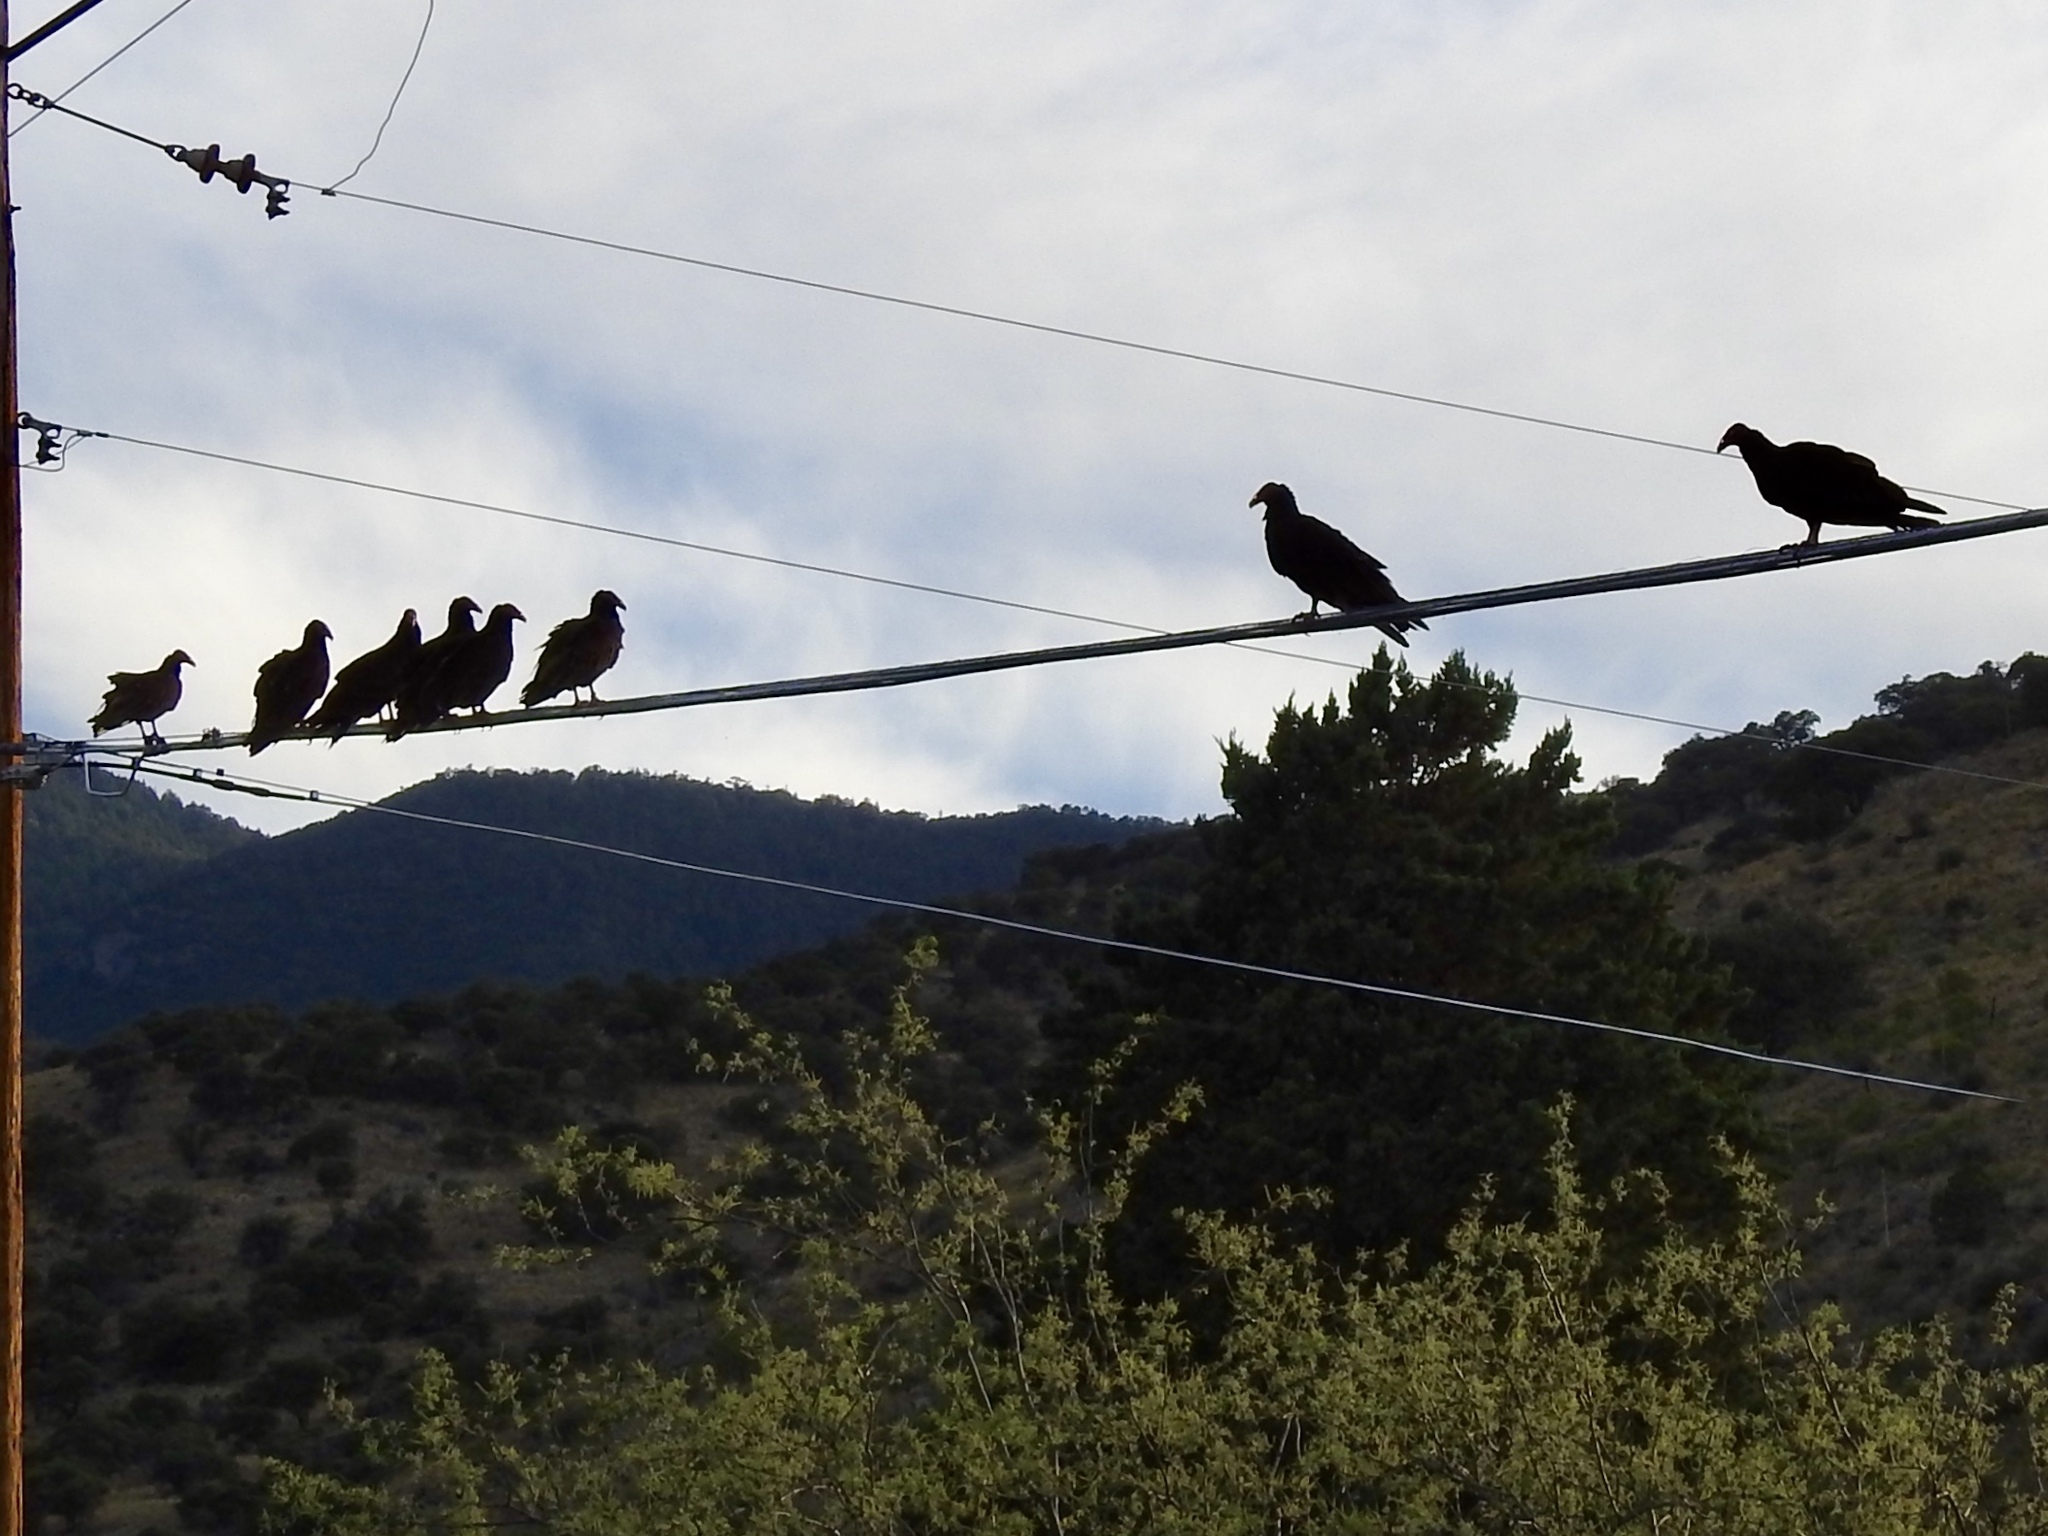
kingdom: Animalia
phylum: Chordata
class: Aves
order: Accipitriformes
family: Cathartidae
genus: Cathartes
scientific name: Cathartes aura
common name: Turkey vulture
